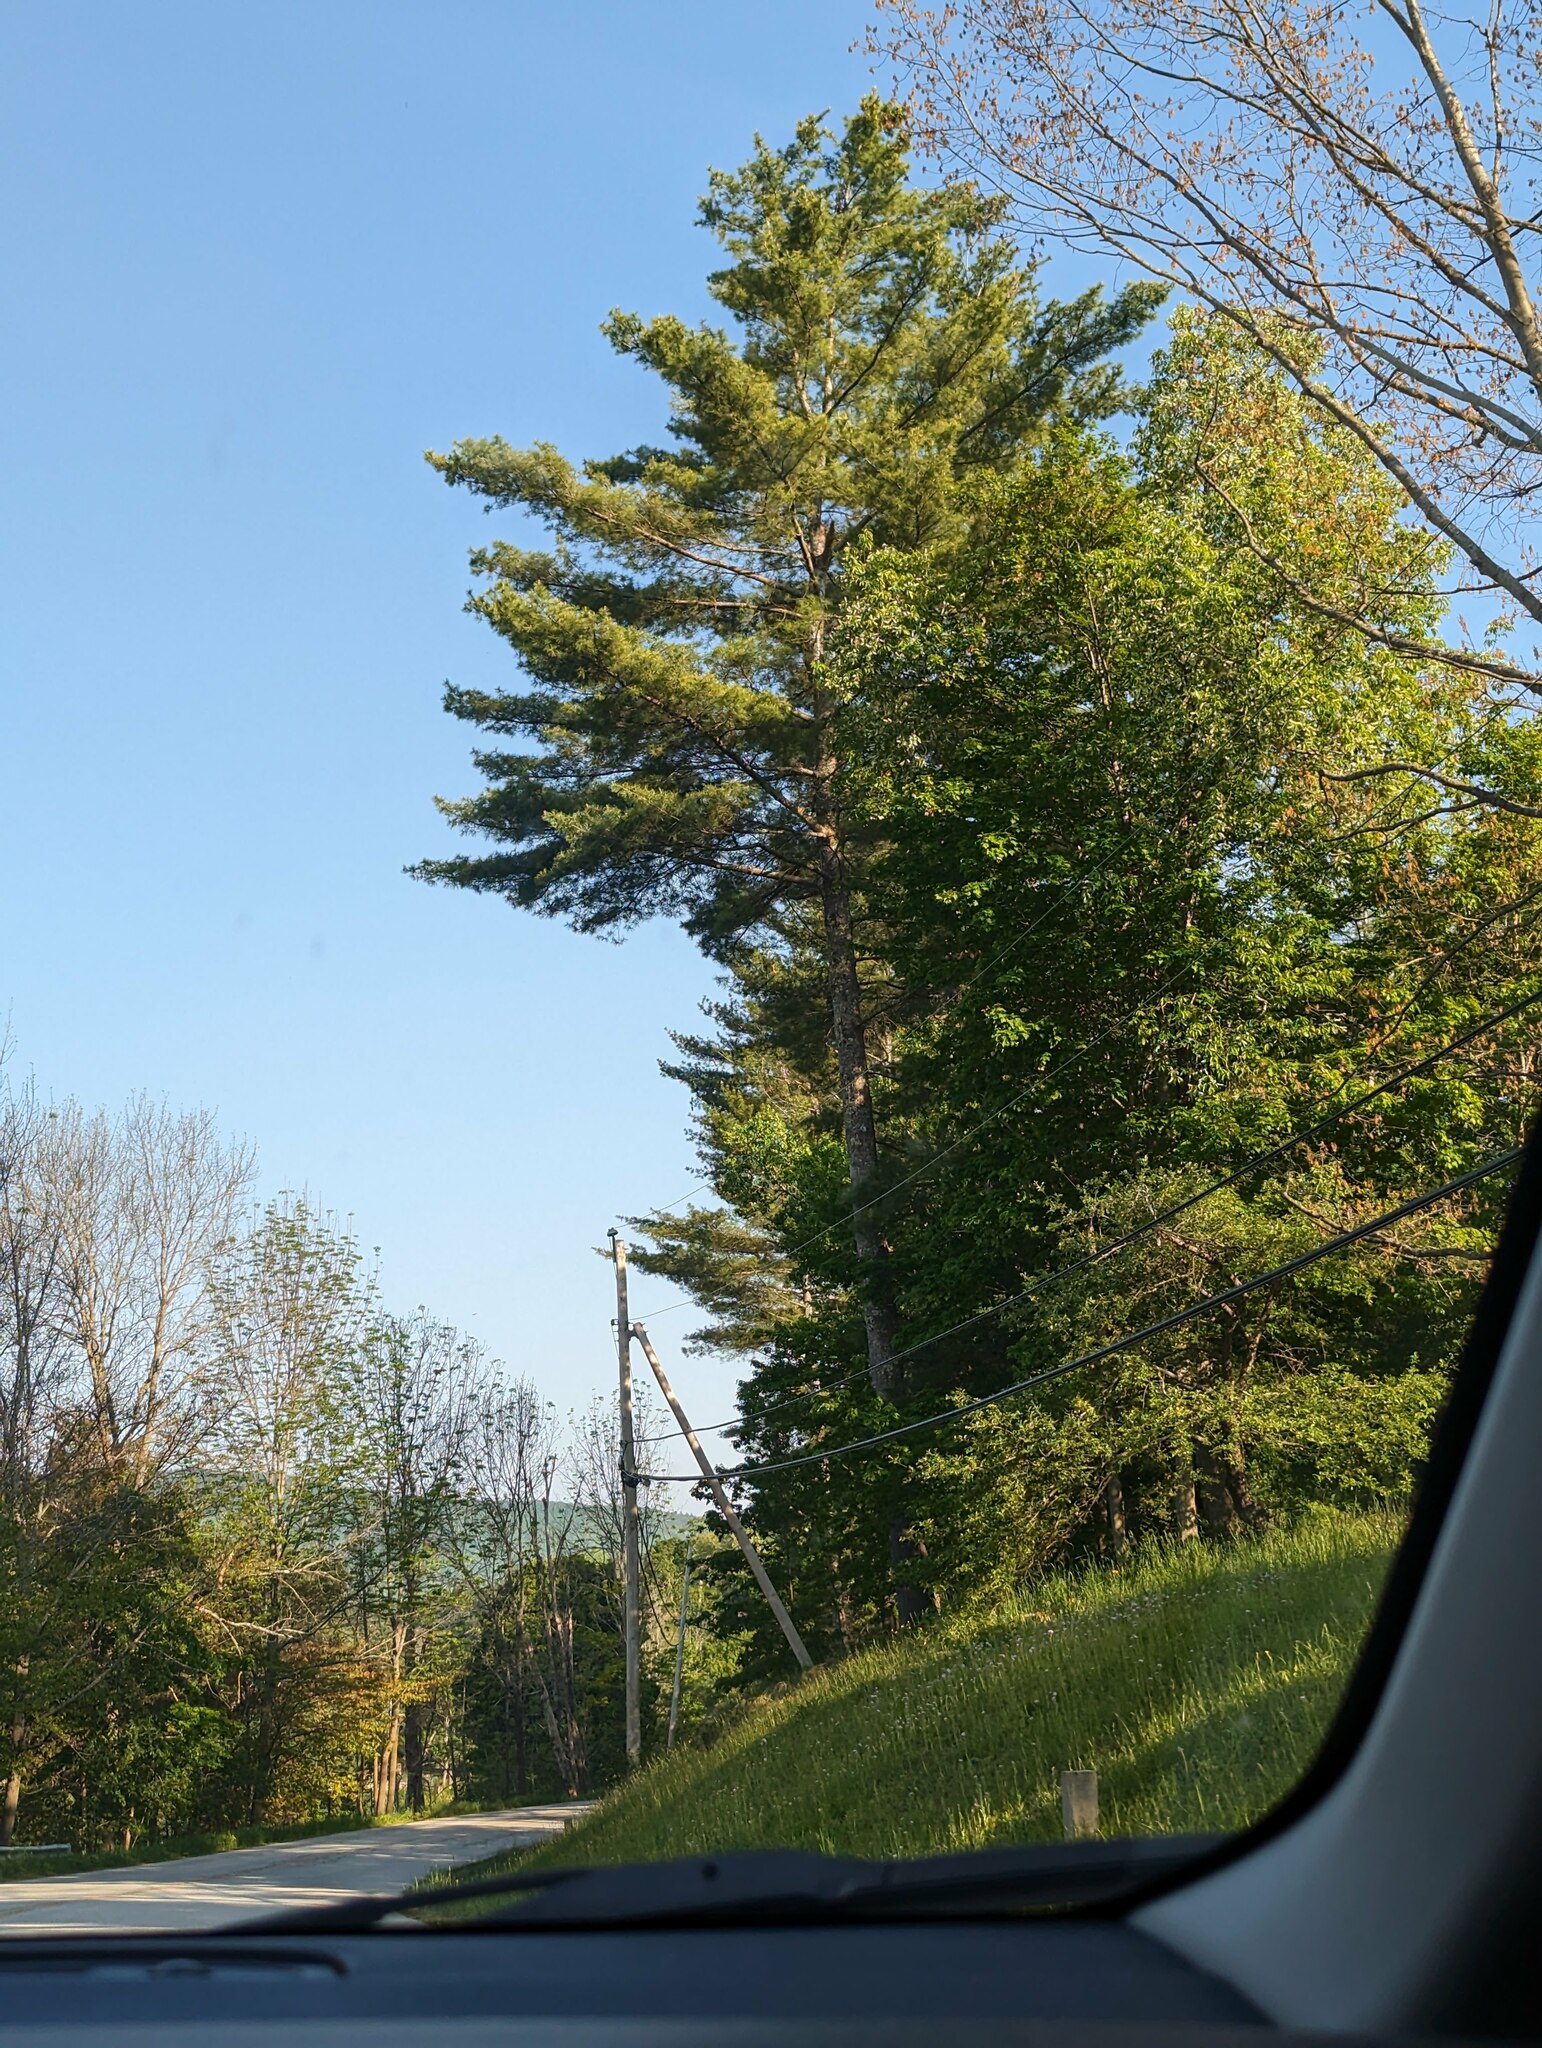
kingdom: Plantae
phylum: Tracheophyta
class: Pinopsida
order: Pinales
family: Pinaceae
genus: Pinus
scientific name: Pinus strobus
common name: Weymouth pine
